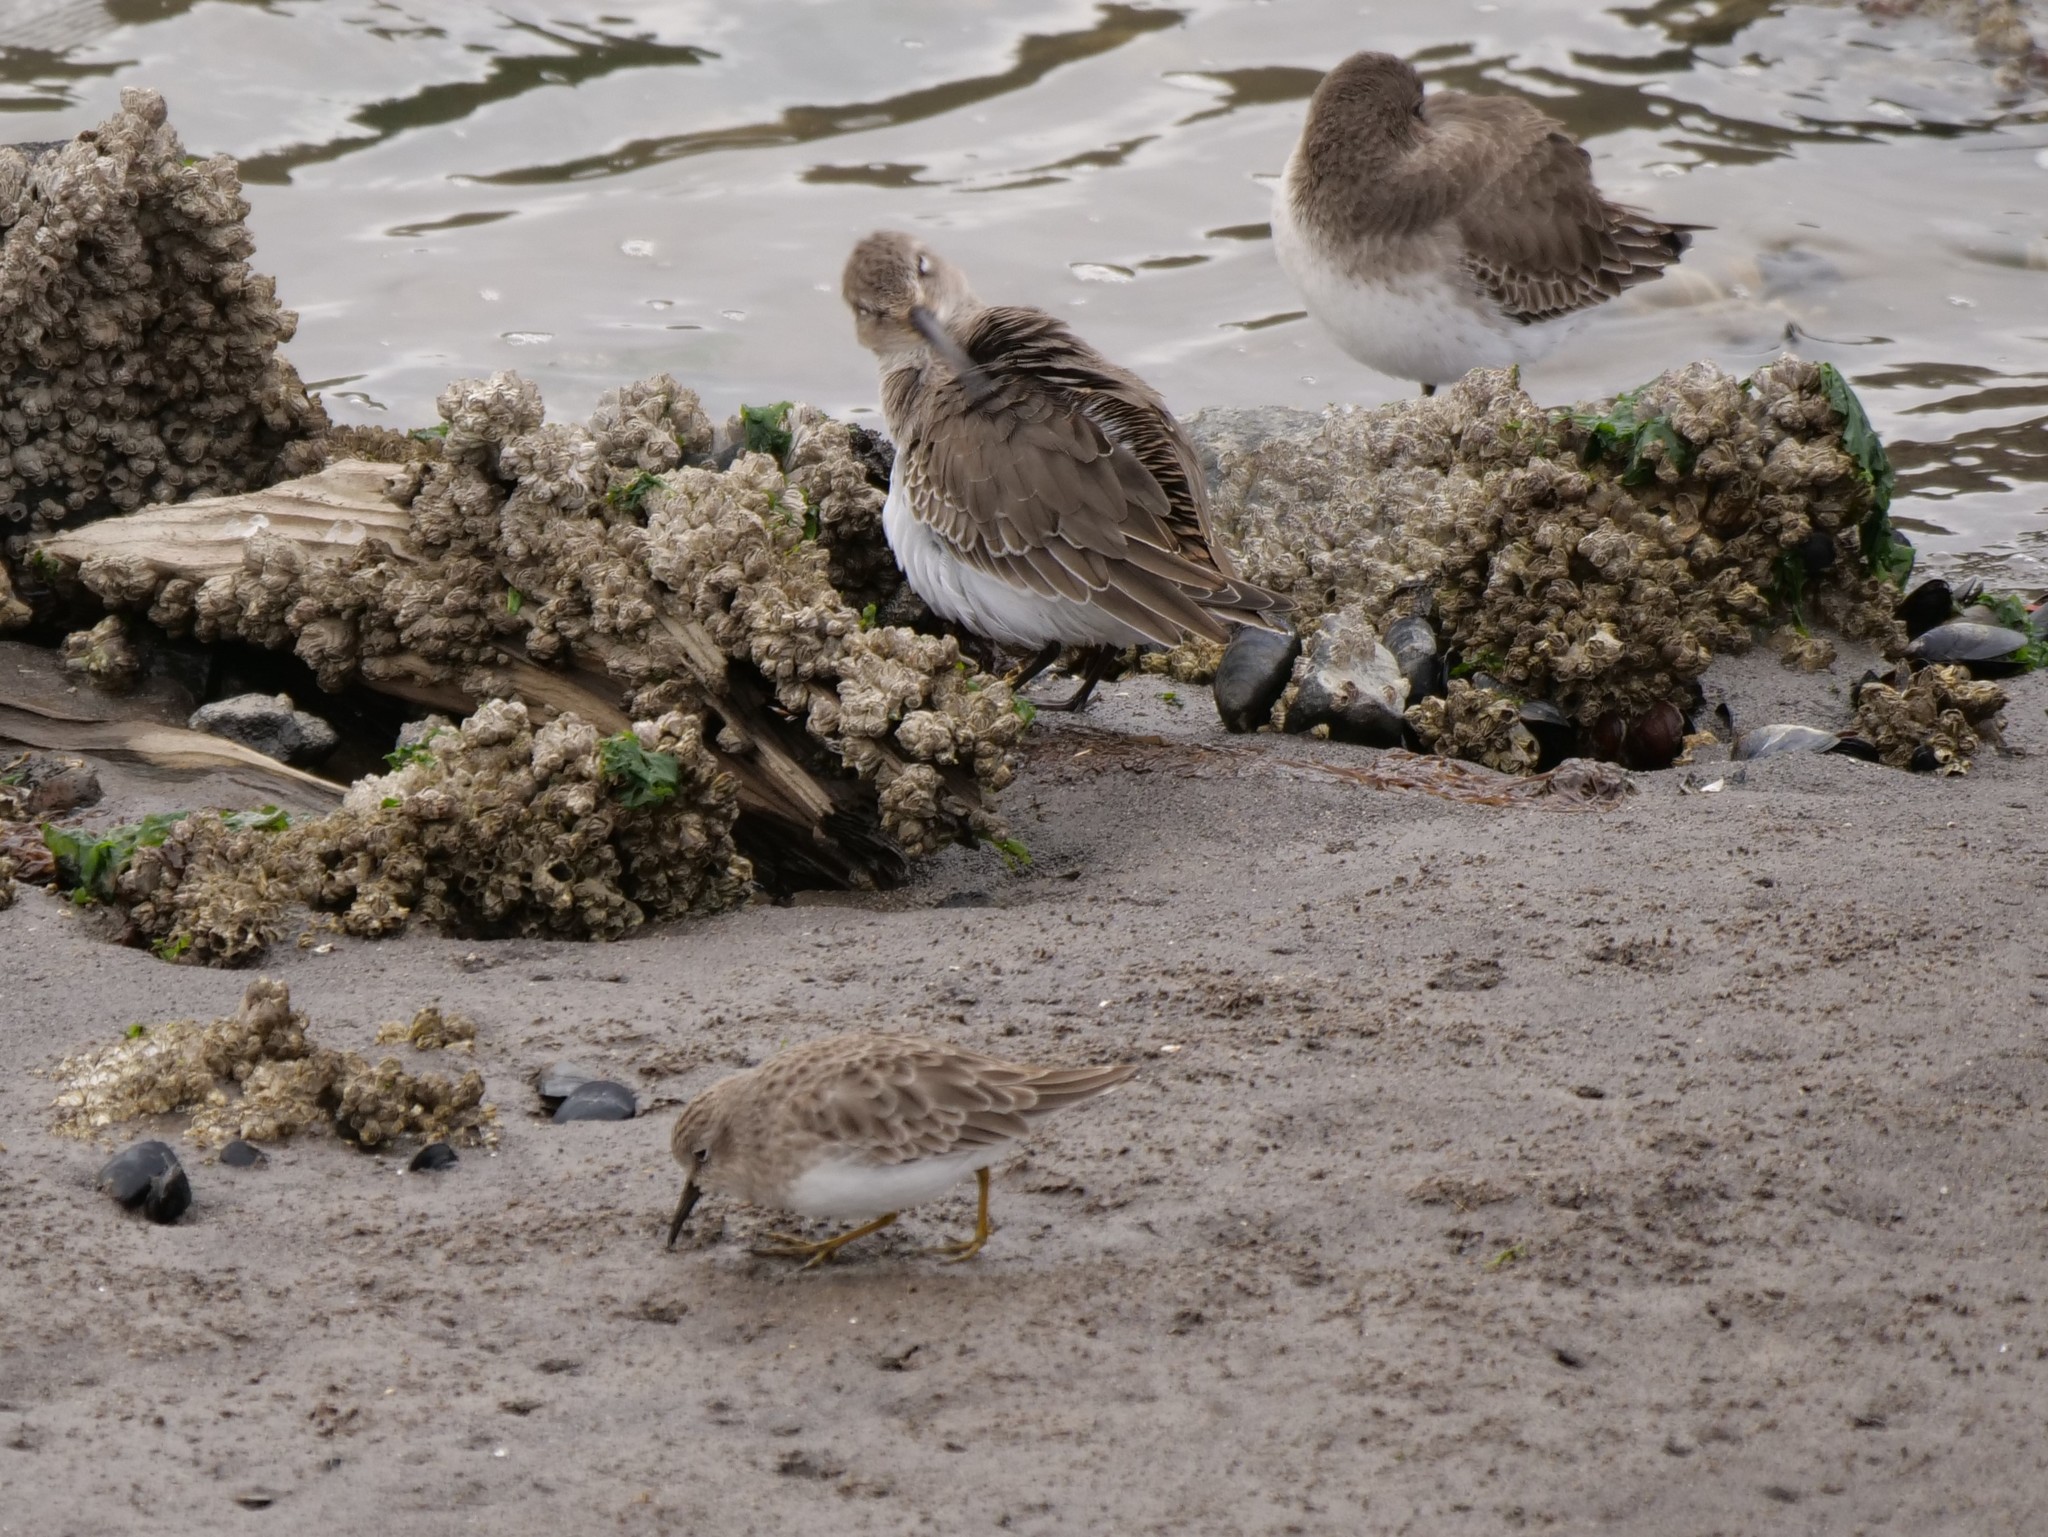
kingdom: Animalia
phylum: Chordata
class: Aves
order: Charadriiformes
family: Scolopacidae
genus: Calidris
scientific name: Calidris minutilla
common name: Least sandpiper
